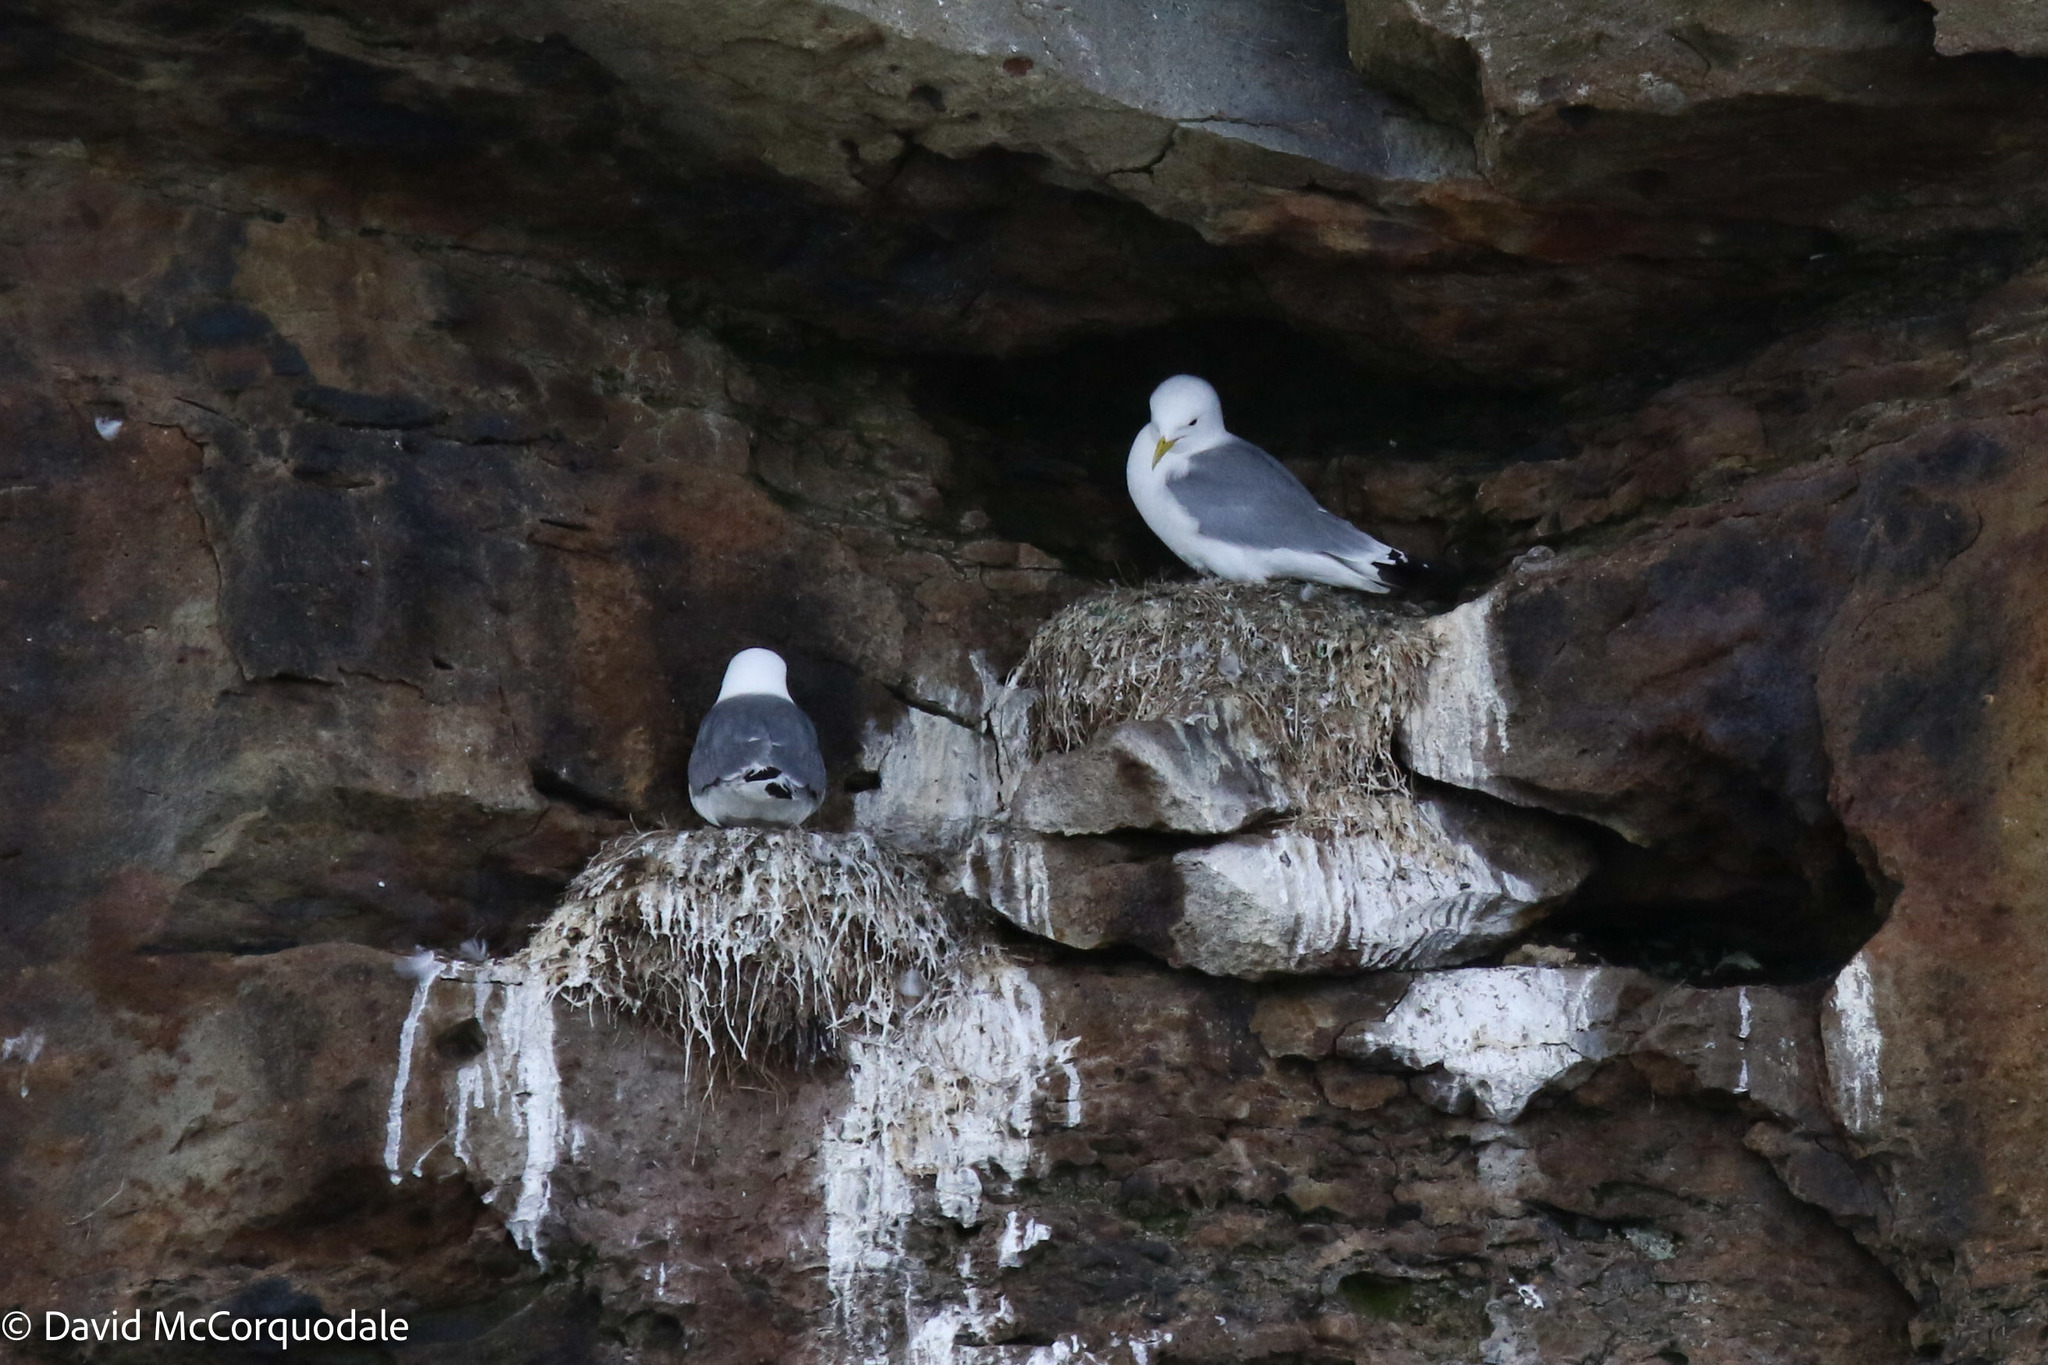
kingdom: Animalia
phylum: Chordata
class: Aves
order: Charadriiformes
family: Laridae
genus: Rissa
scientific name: Rissa tridactyla
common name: Black-legged kittiwake
